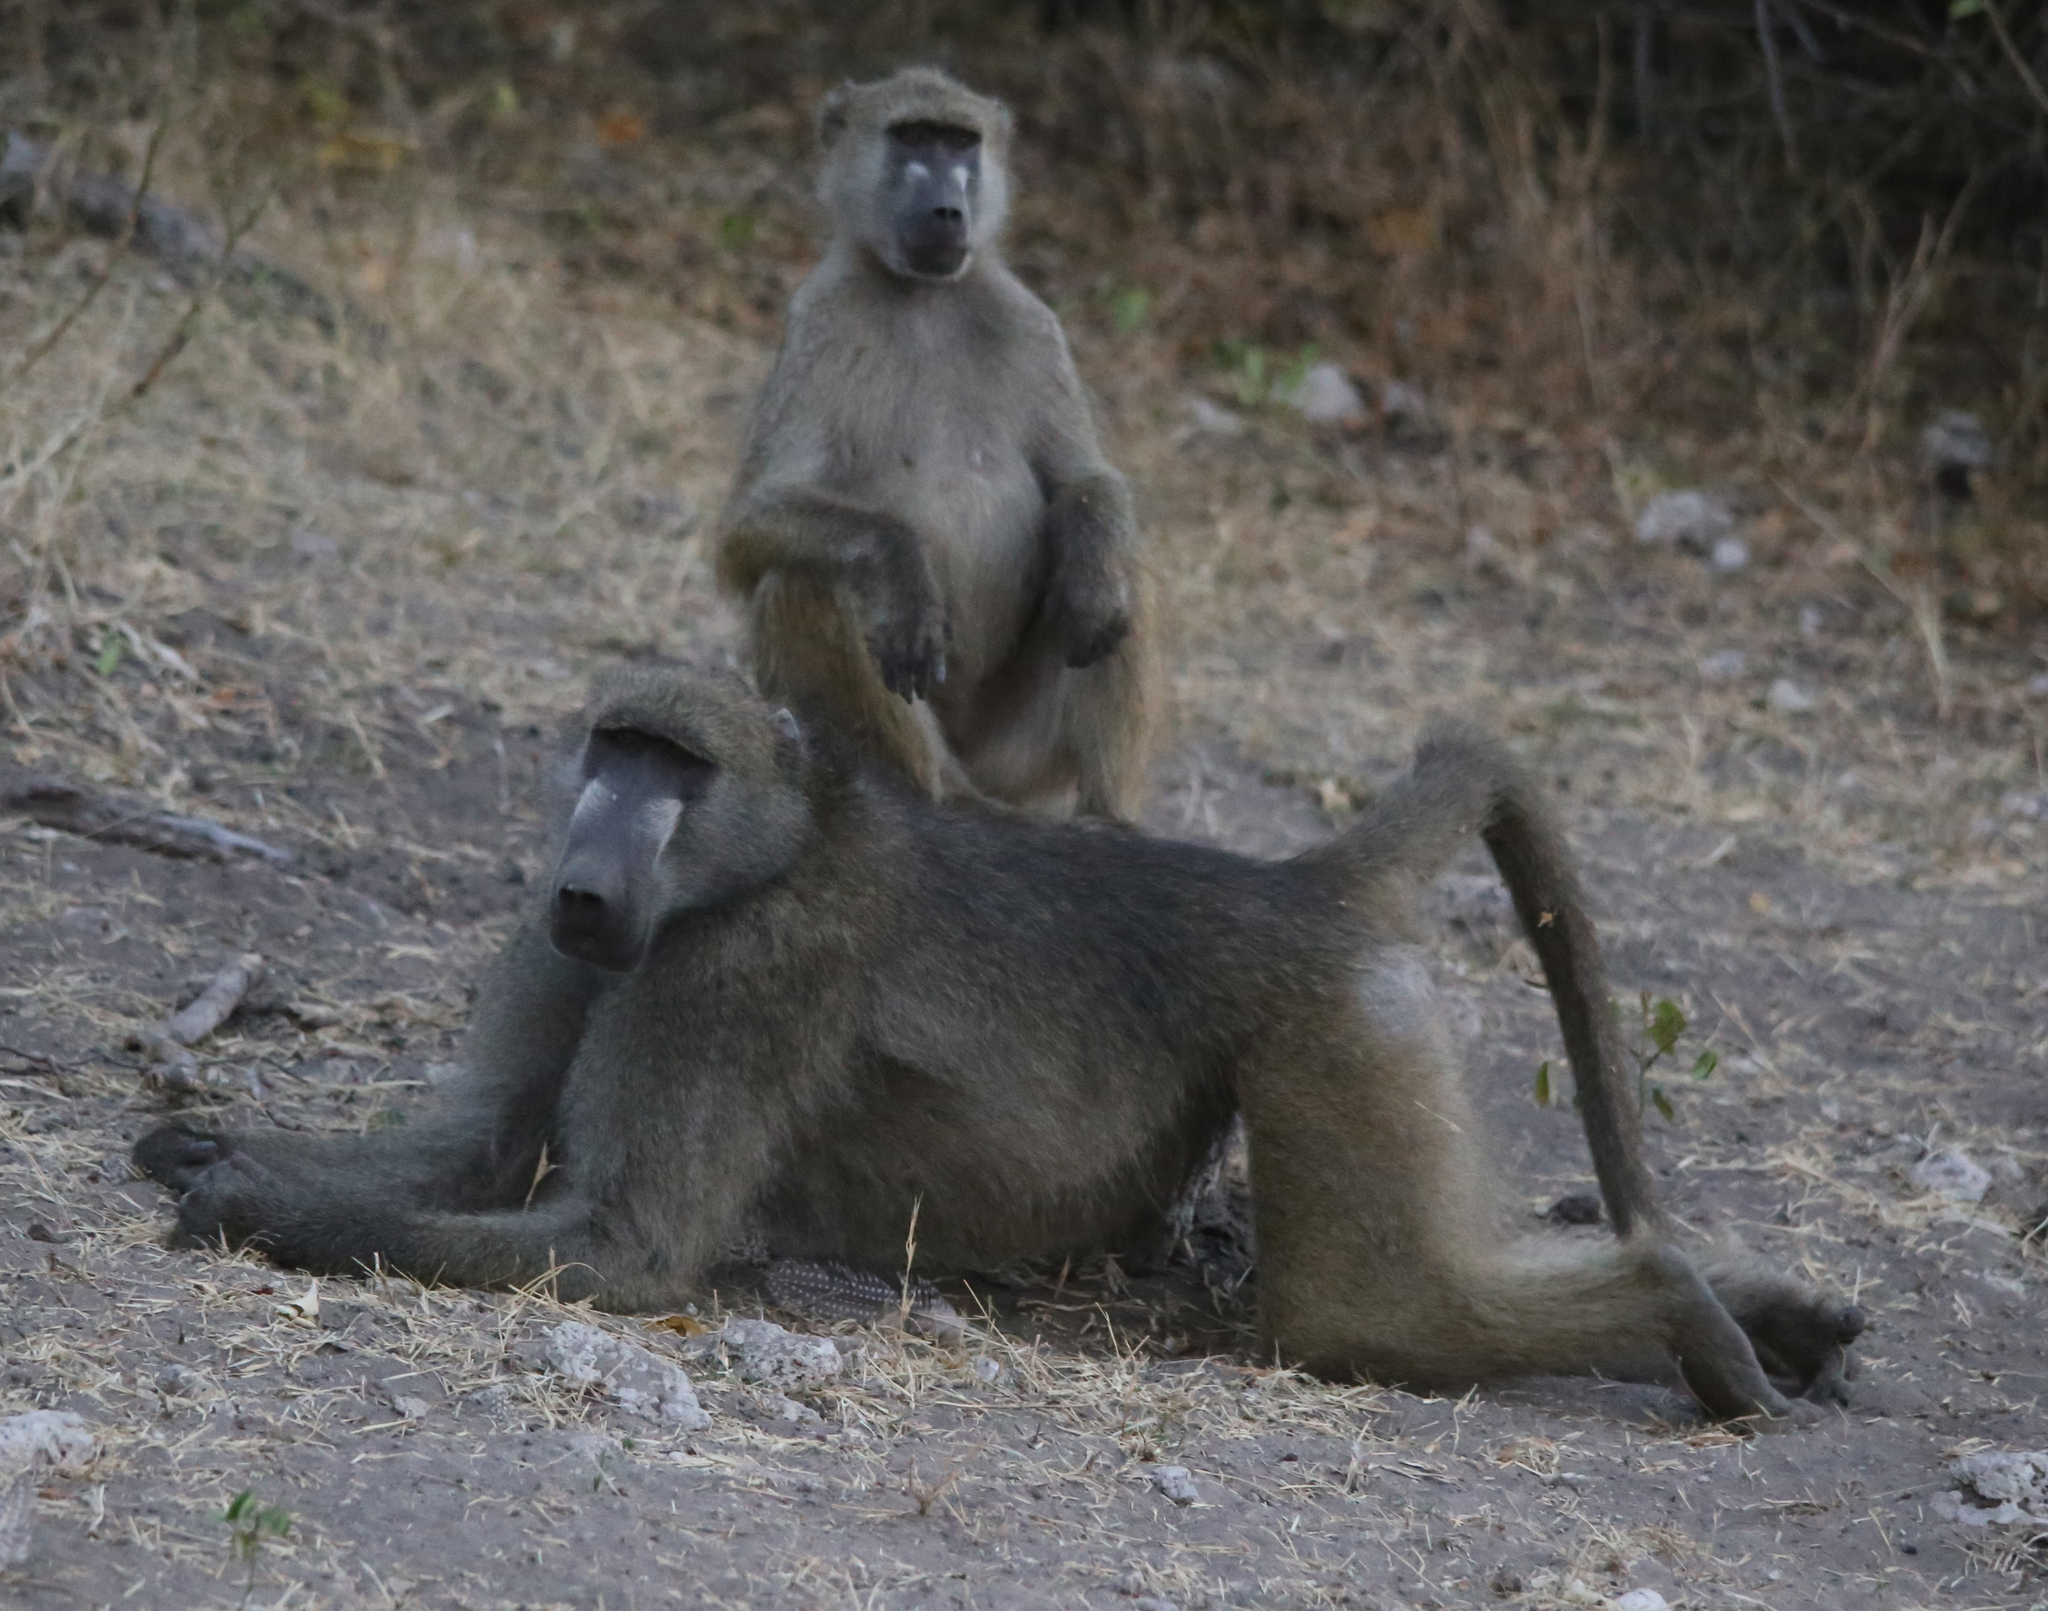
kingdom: Animalia
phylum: Chordata
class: Mammalia
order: Primates
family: Cercopithecidae
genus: Papio
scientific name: Papio ursinus
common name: Chacma baboon
